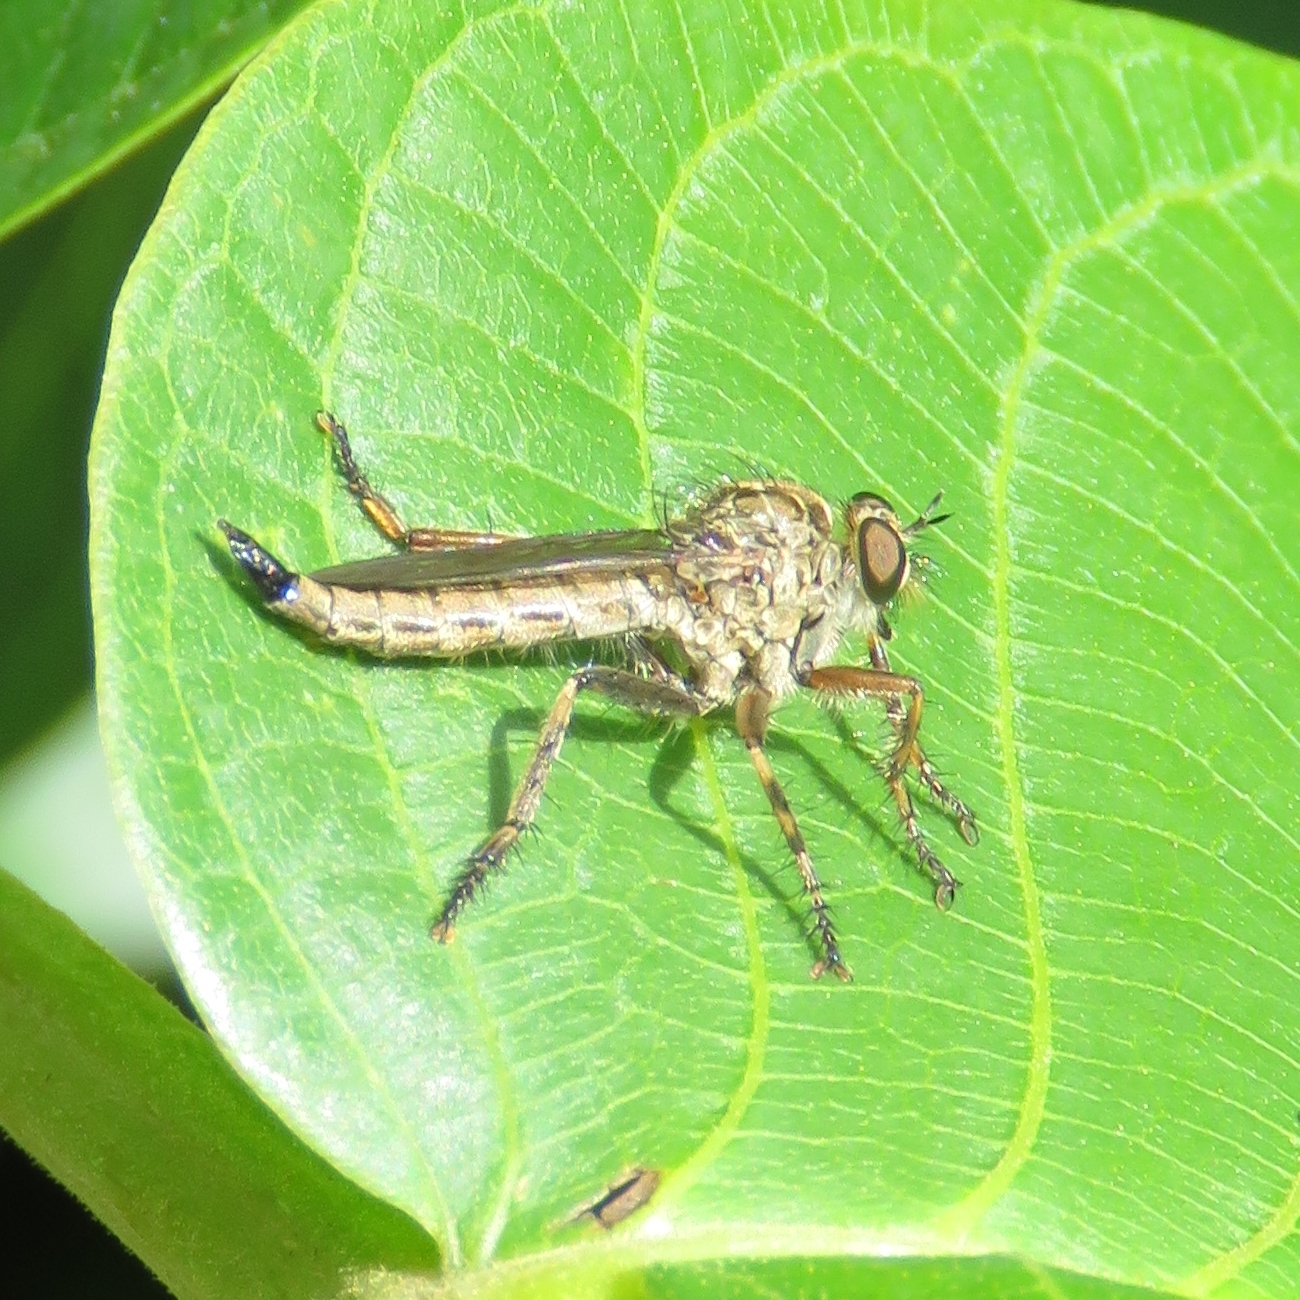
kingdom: Animalia
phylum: Arthropoda
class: Insecta
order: Diptera
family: Asilidae
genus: Epitriptus
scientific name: Epitriptus cingulatus
